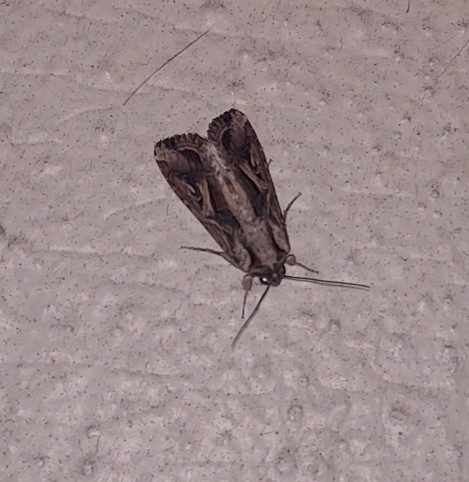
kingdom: Animalia
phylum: Arthropoda
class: Insecta
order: Lepidoptera
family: Noctuidae
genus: Spodoptera
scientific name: Spodoptera dolichos
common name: Sweetpotato armyworm
